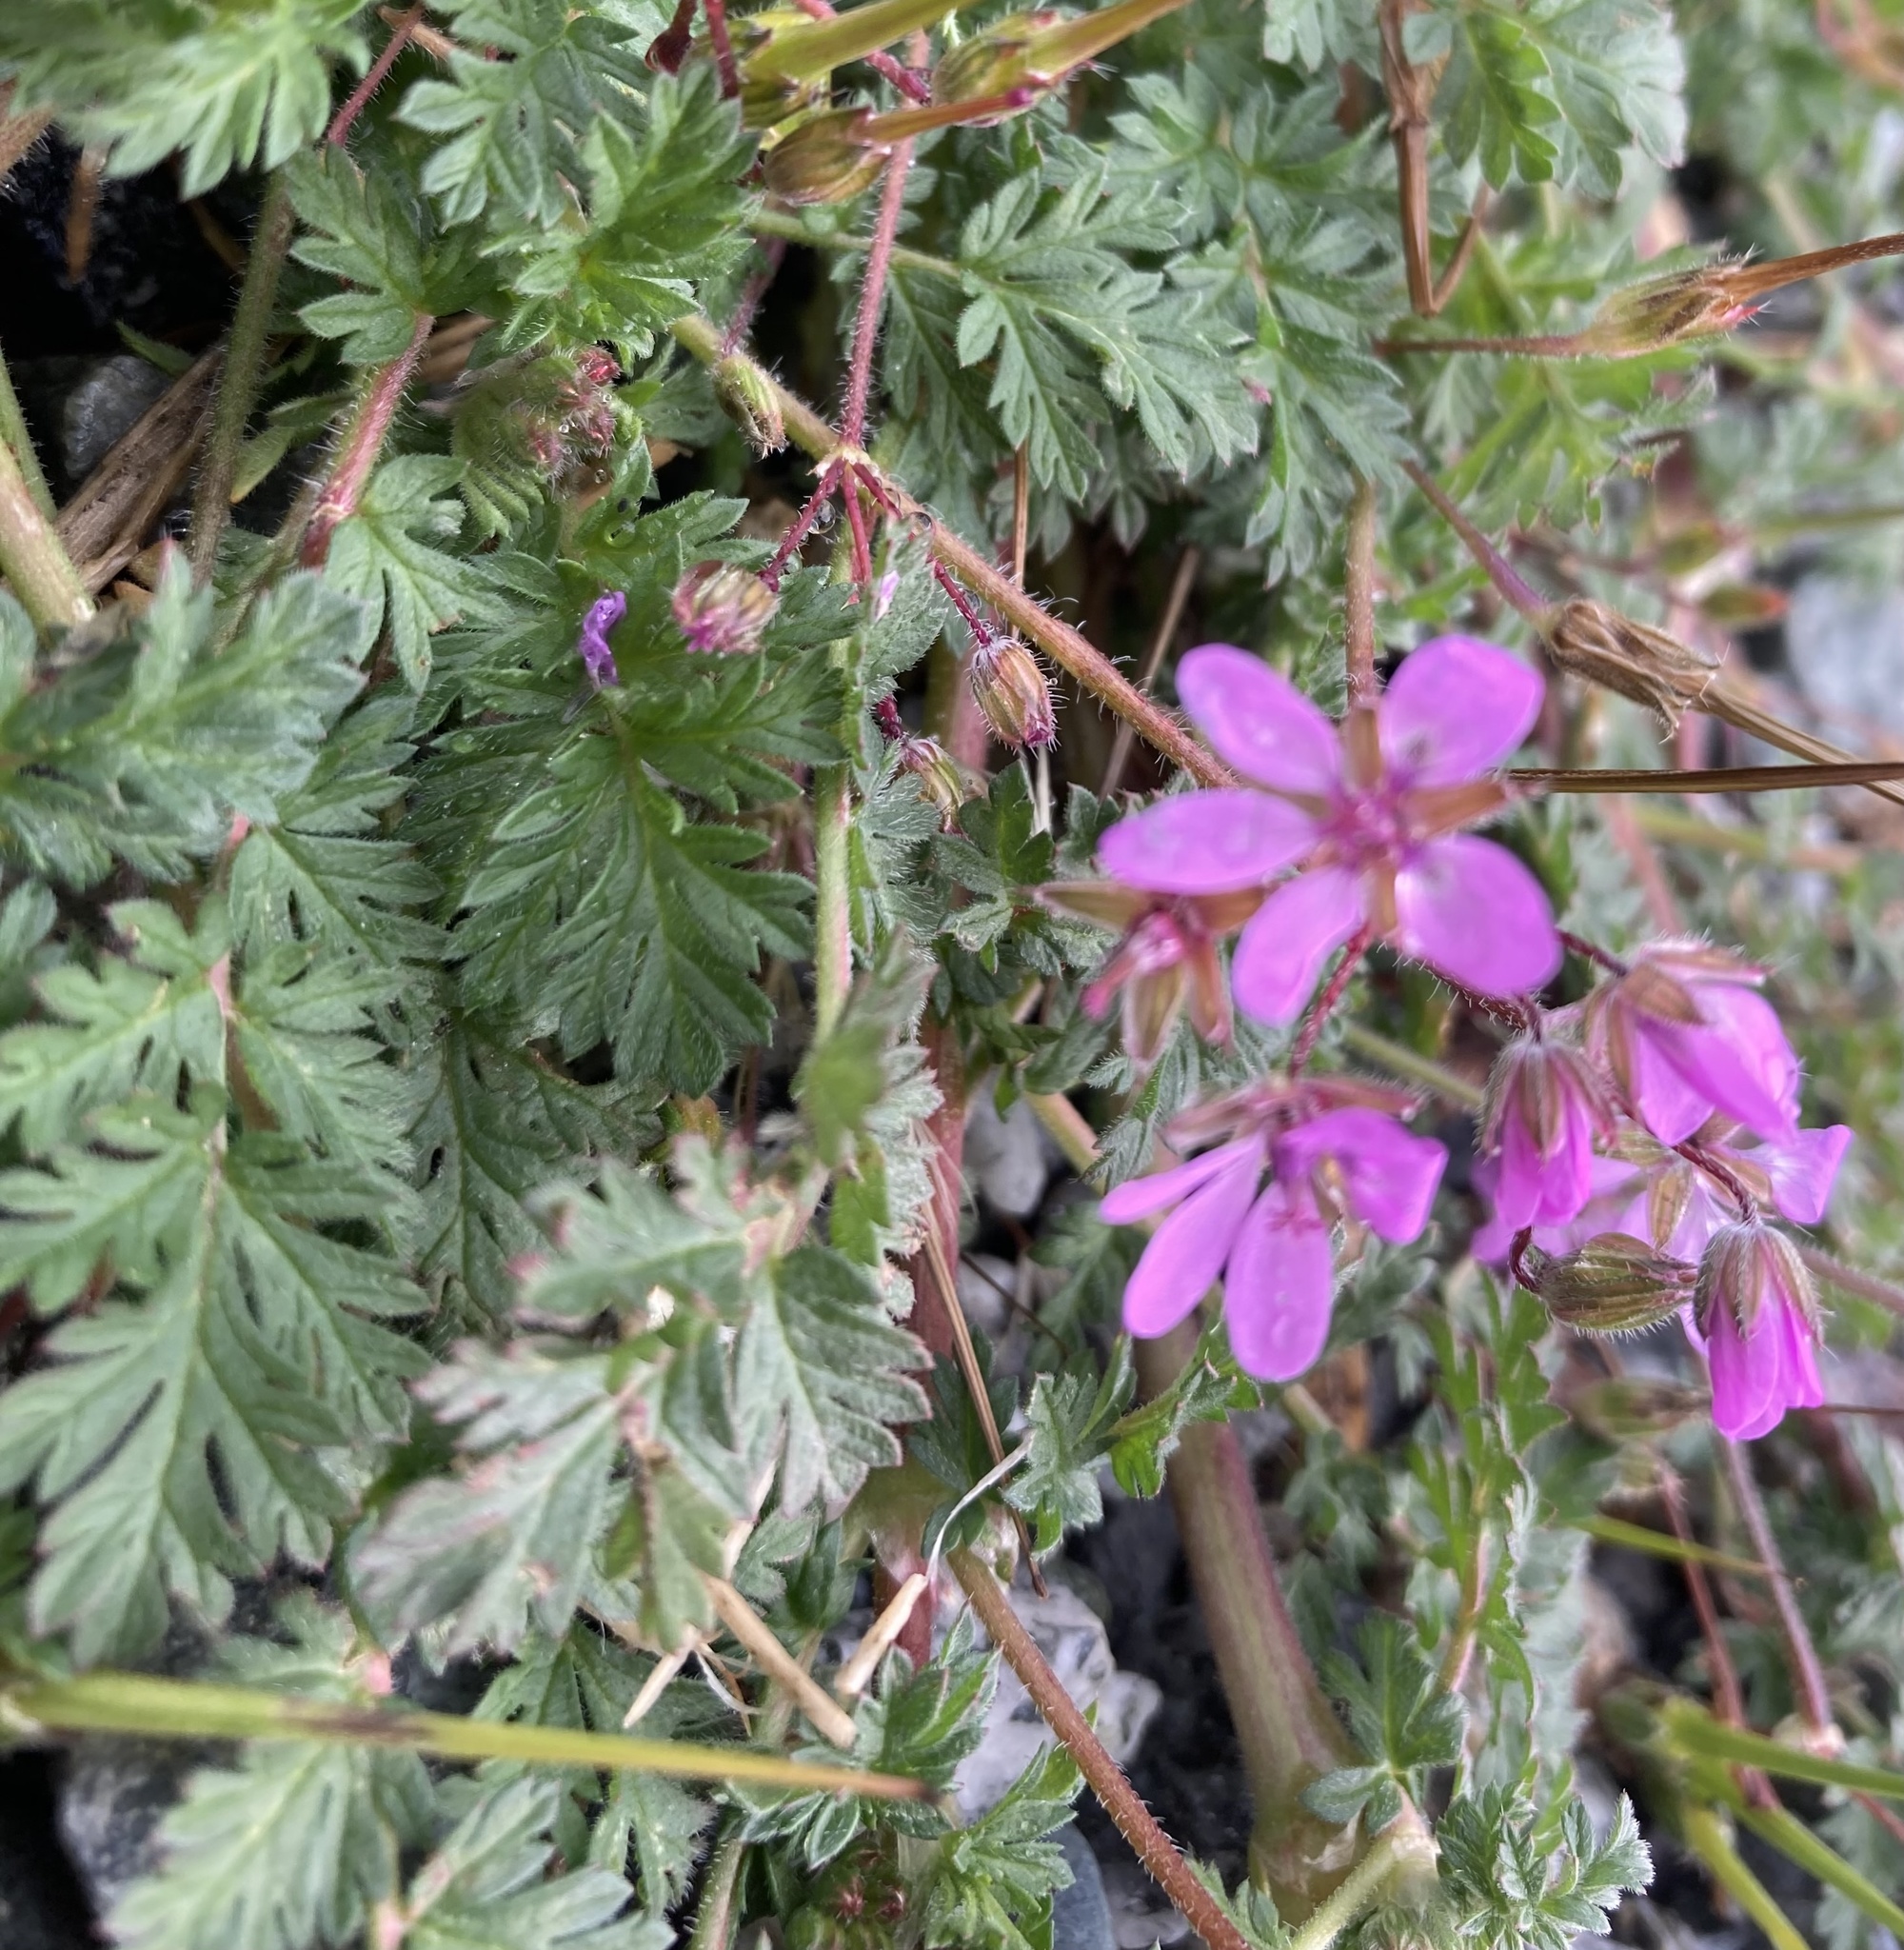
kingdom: Plantae
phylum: Tracheophyta
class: Magnoliopsida
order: Geraniales
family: Geraniaceae
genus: Erodium
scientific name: Erodium cicutarium
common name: Common stork's-bill
